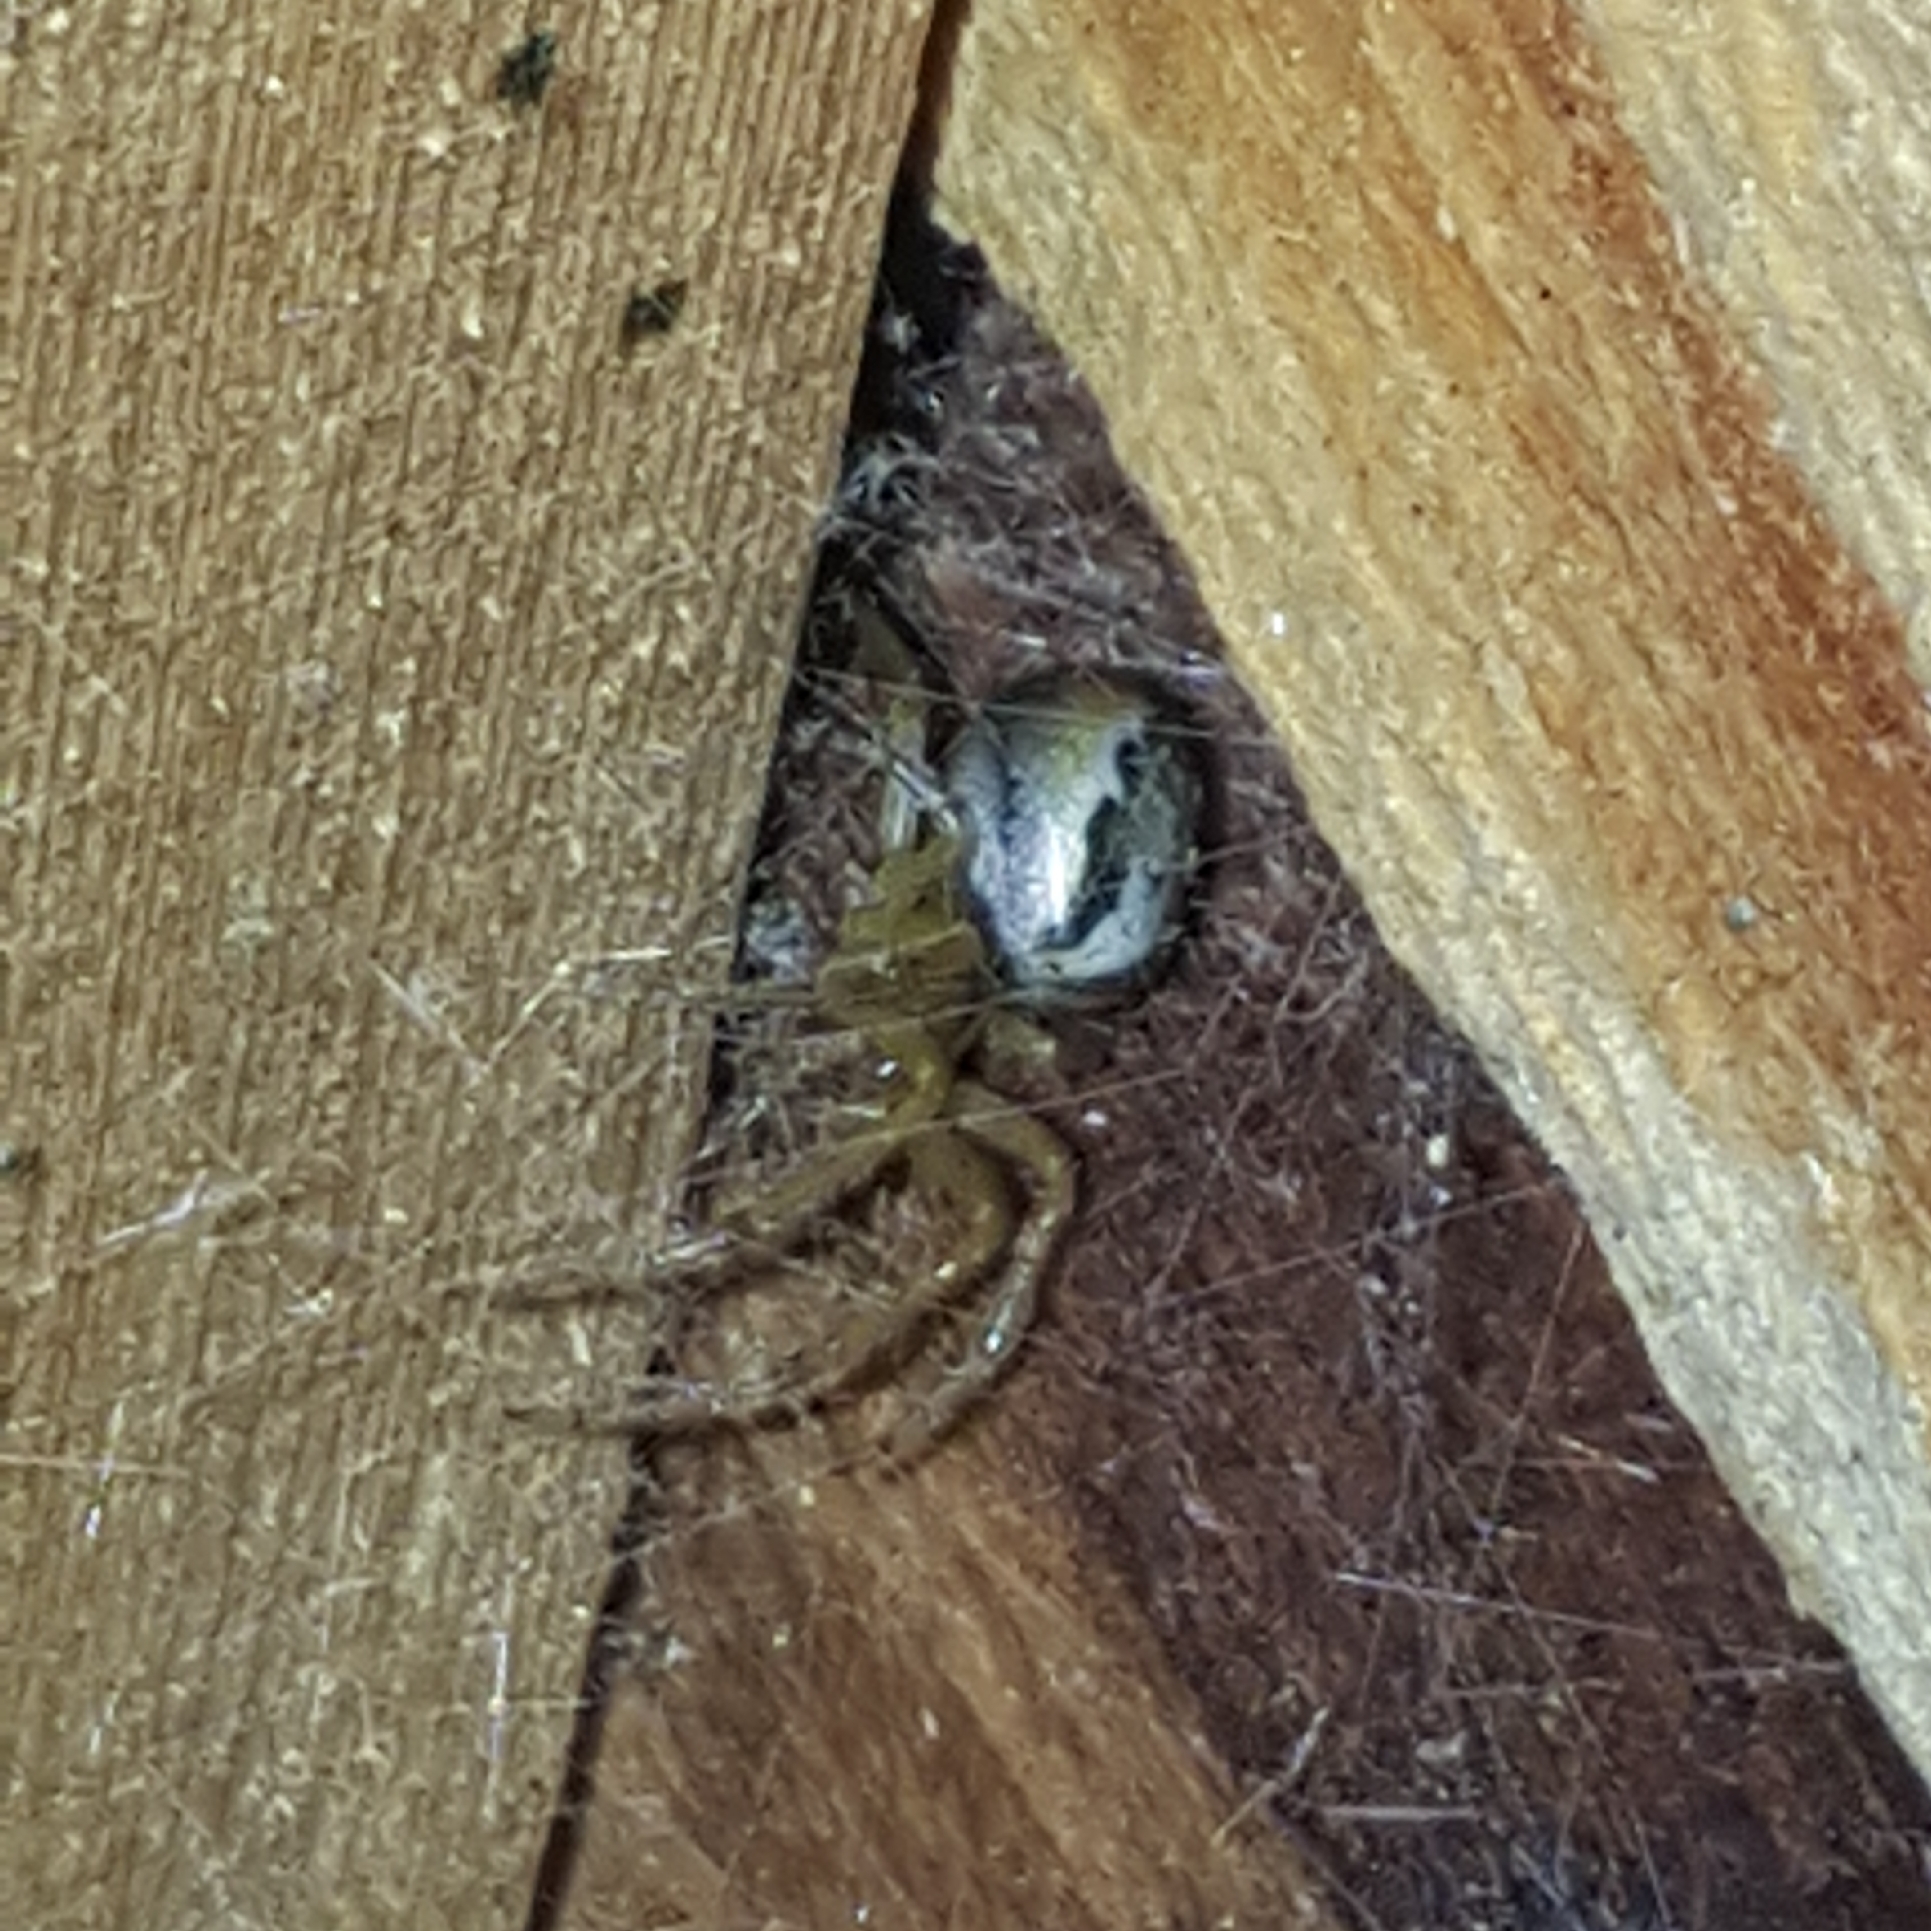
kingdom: Animalia
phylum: Arthropoda
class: Arachnida
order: Araneae
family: Araneidae
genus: Zygiella
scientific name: Zygiella x-notata
